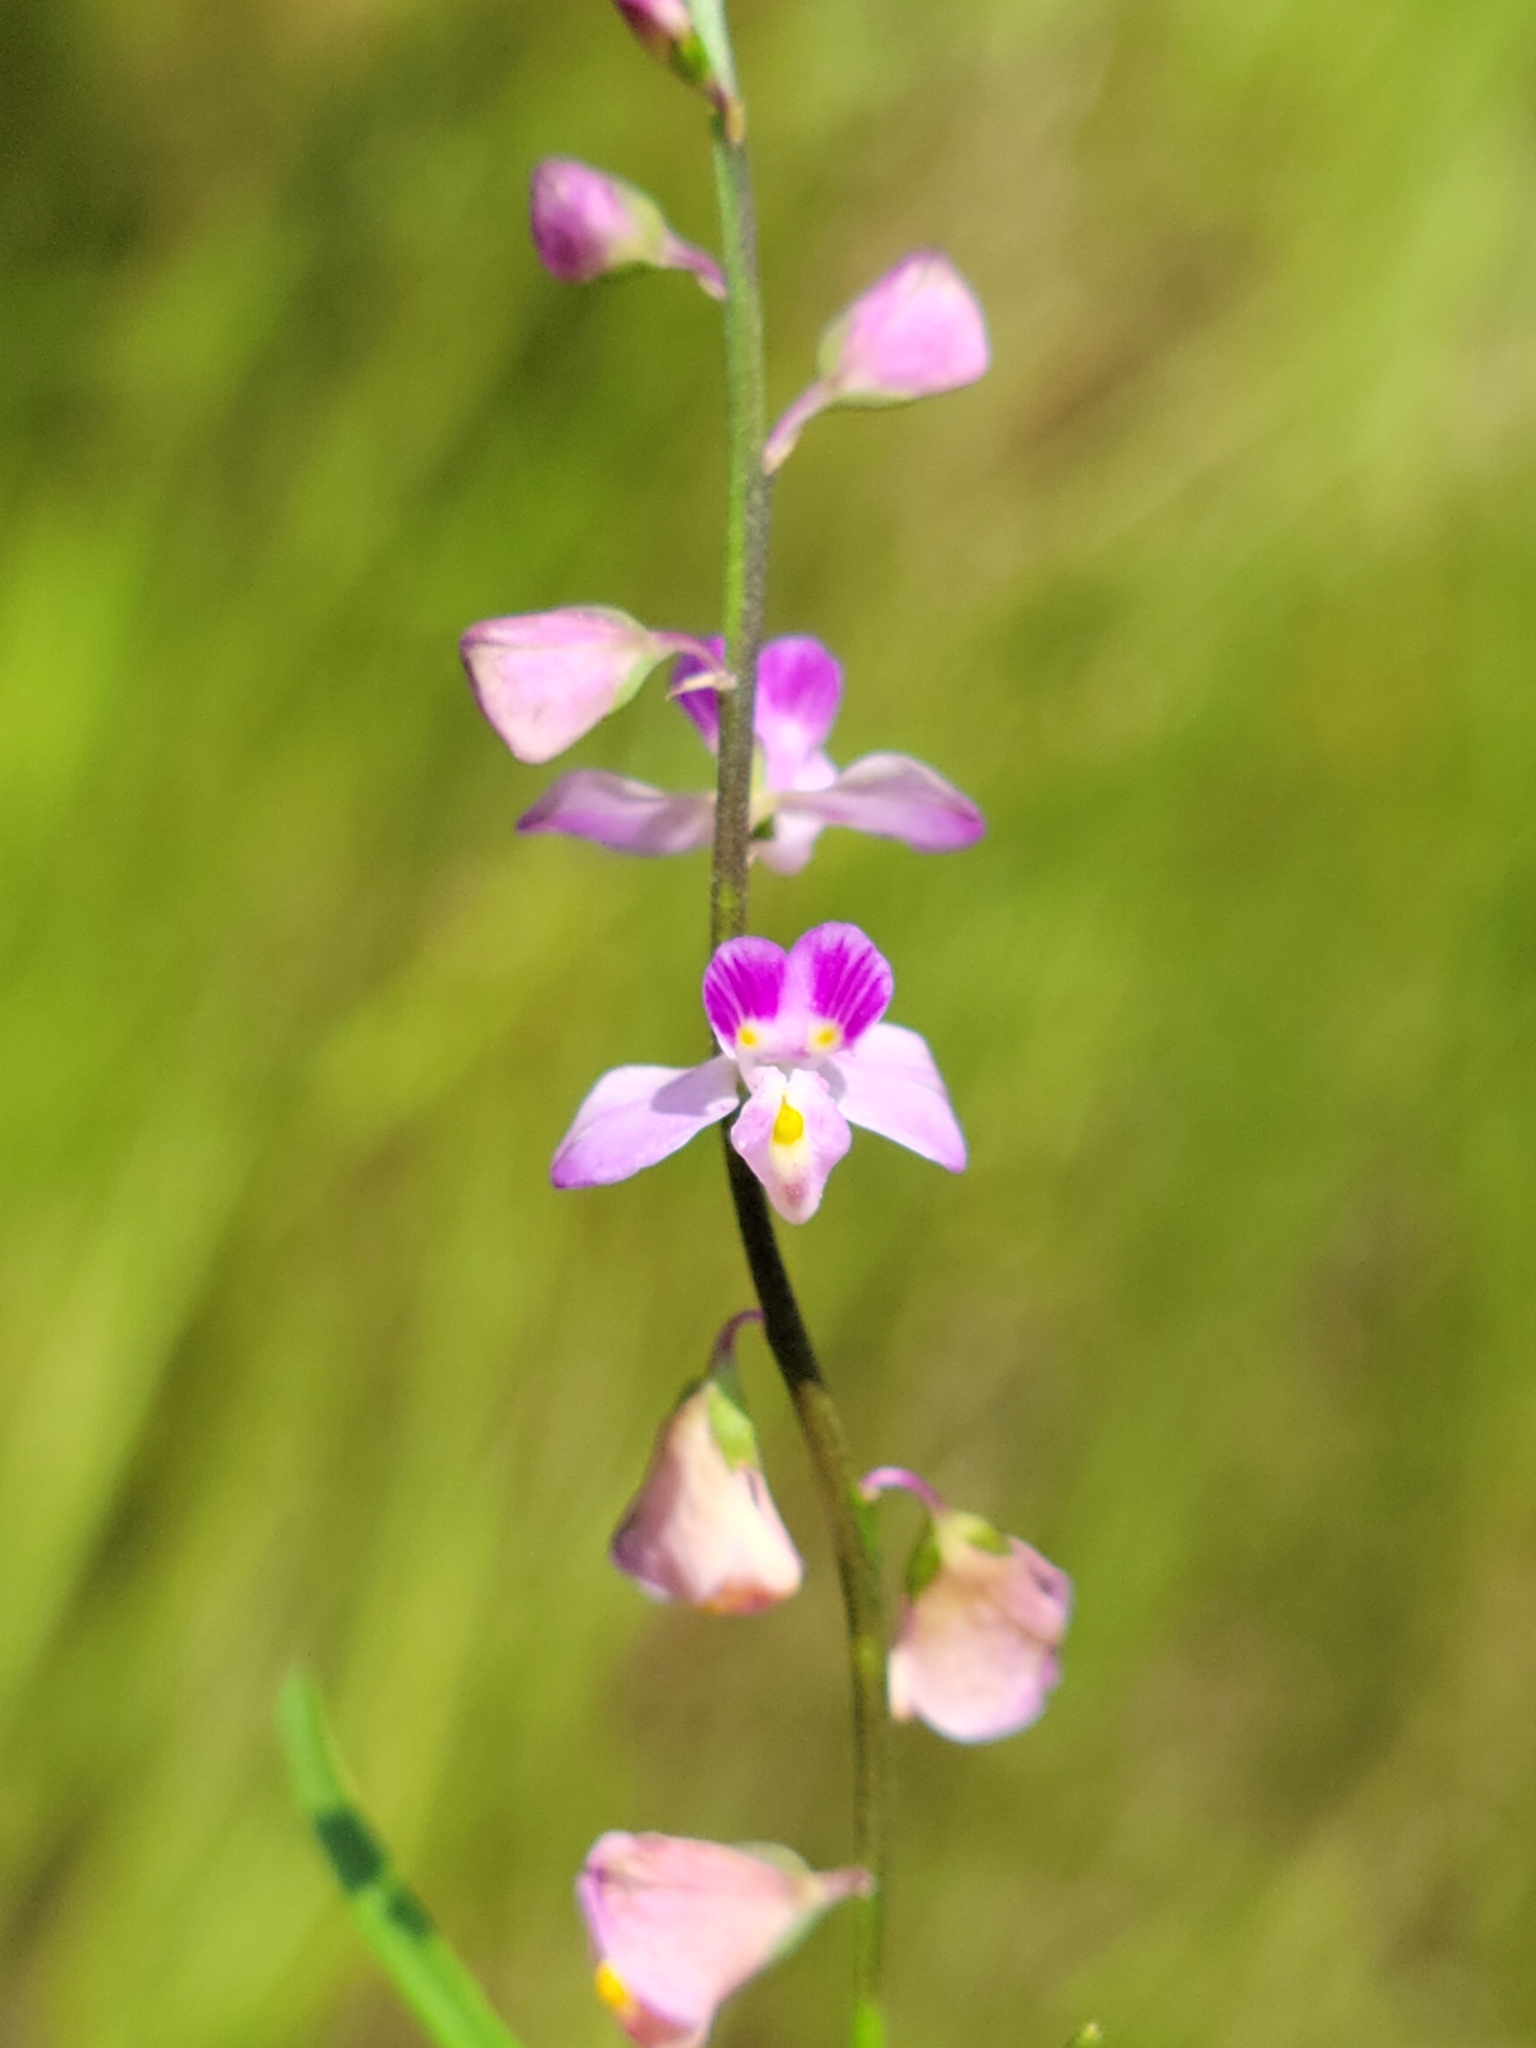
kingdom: Plantae
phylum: Tracheophyta
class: Magnoliopsida
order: Fabales
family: Polygalaceae
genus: Asemeia
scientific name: Asemeia grandiflora
